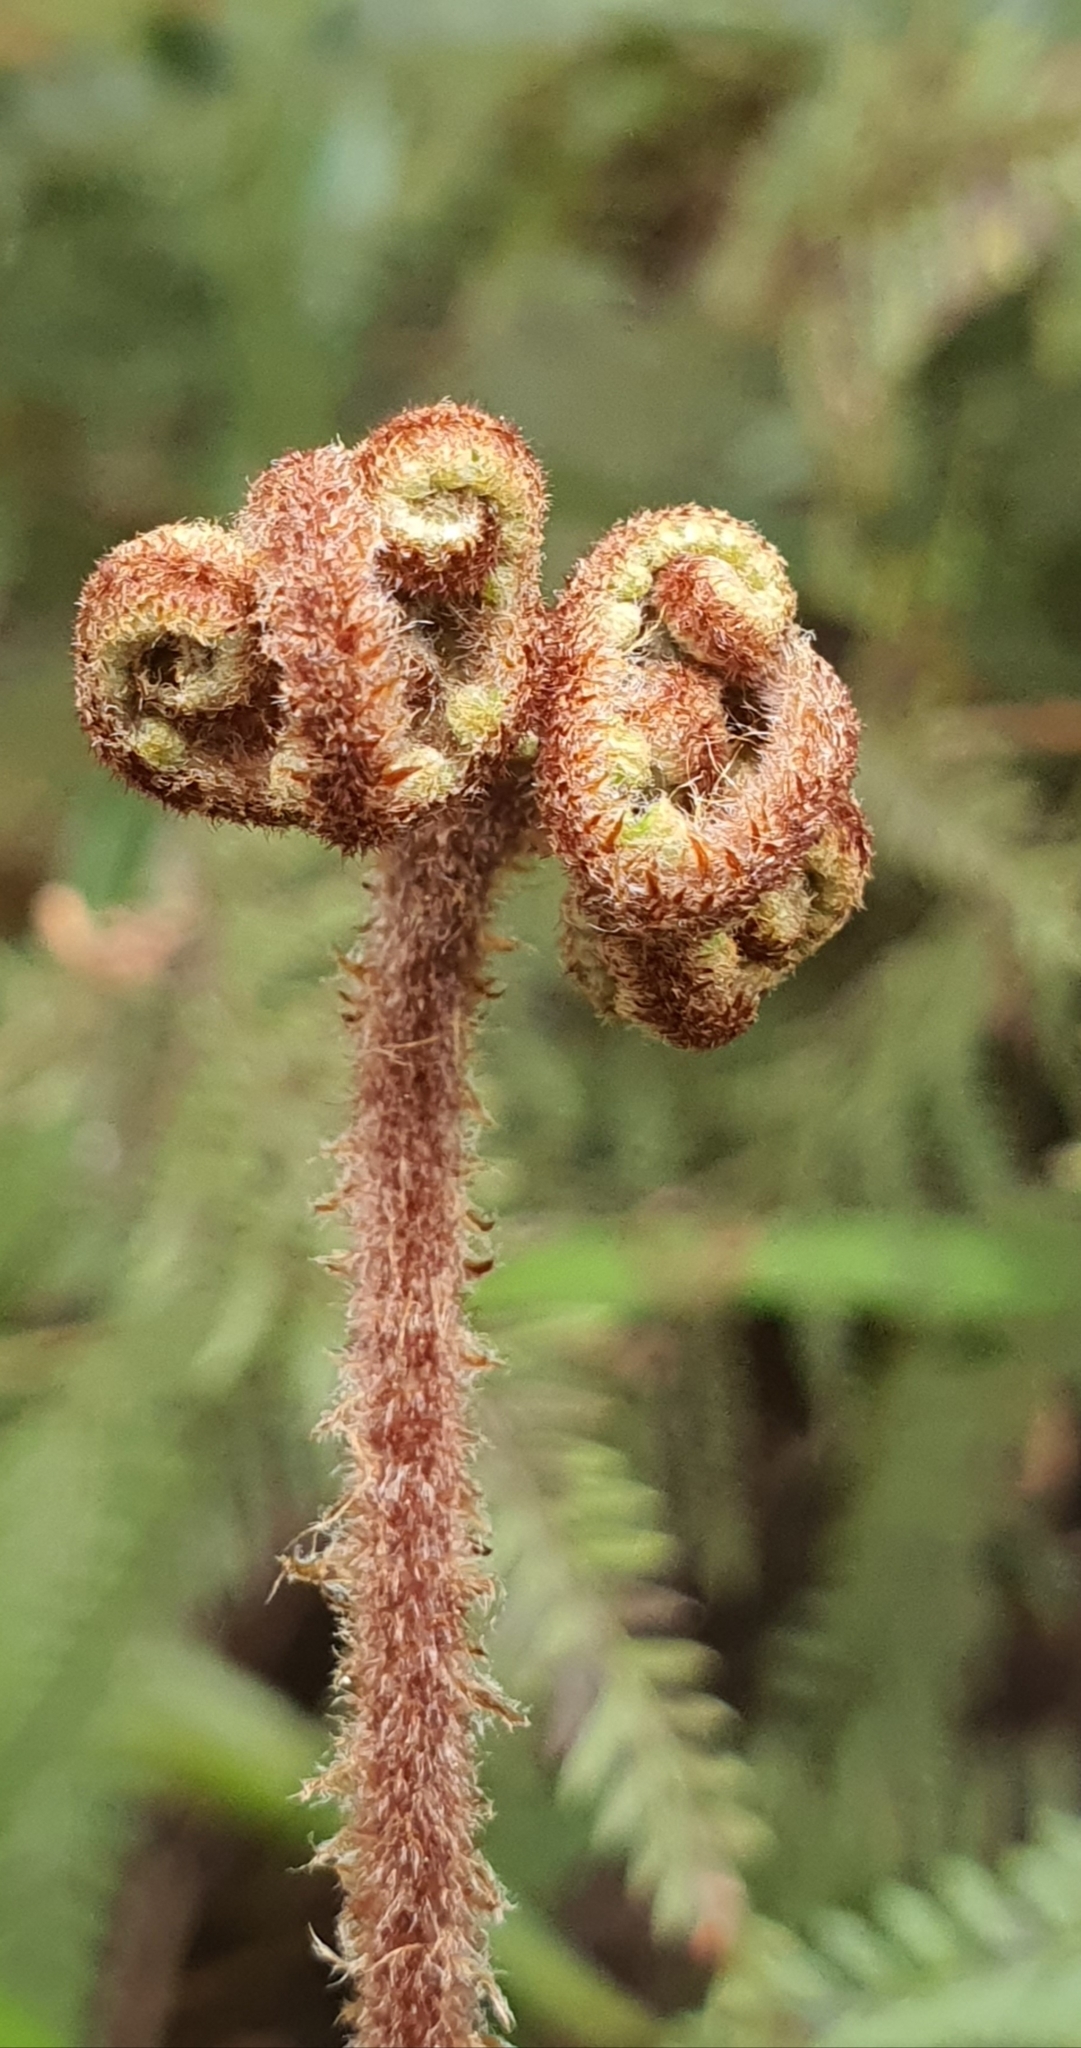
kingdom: Plantae
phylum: Tracheophyta
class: Polypodiopsida
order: Gleicheniales
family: Gleicheniaceae
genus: Gleichenia
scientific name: Gleichenia dicarpa
